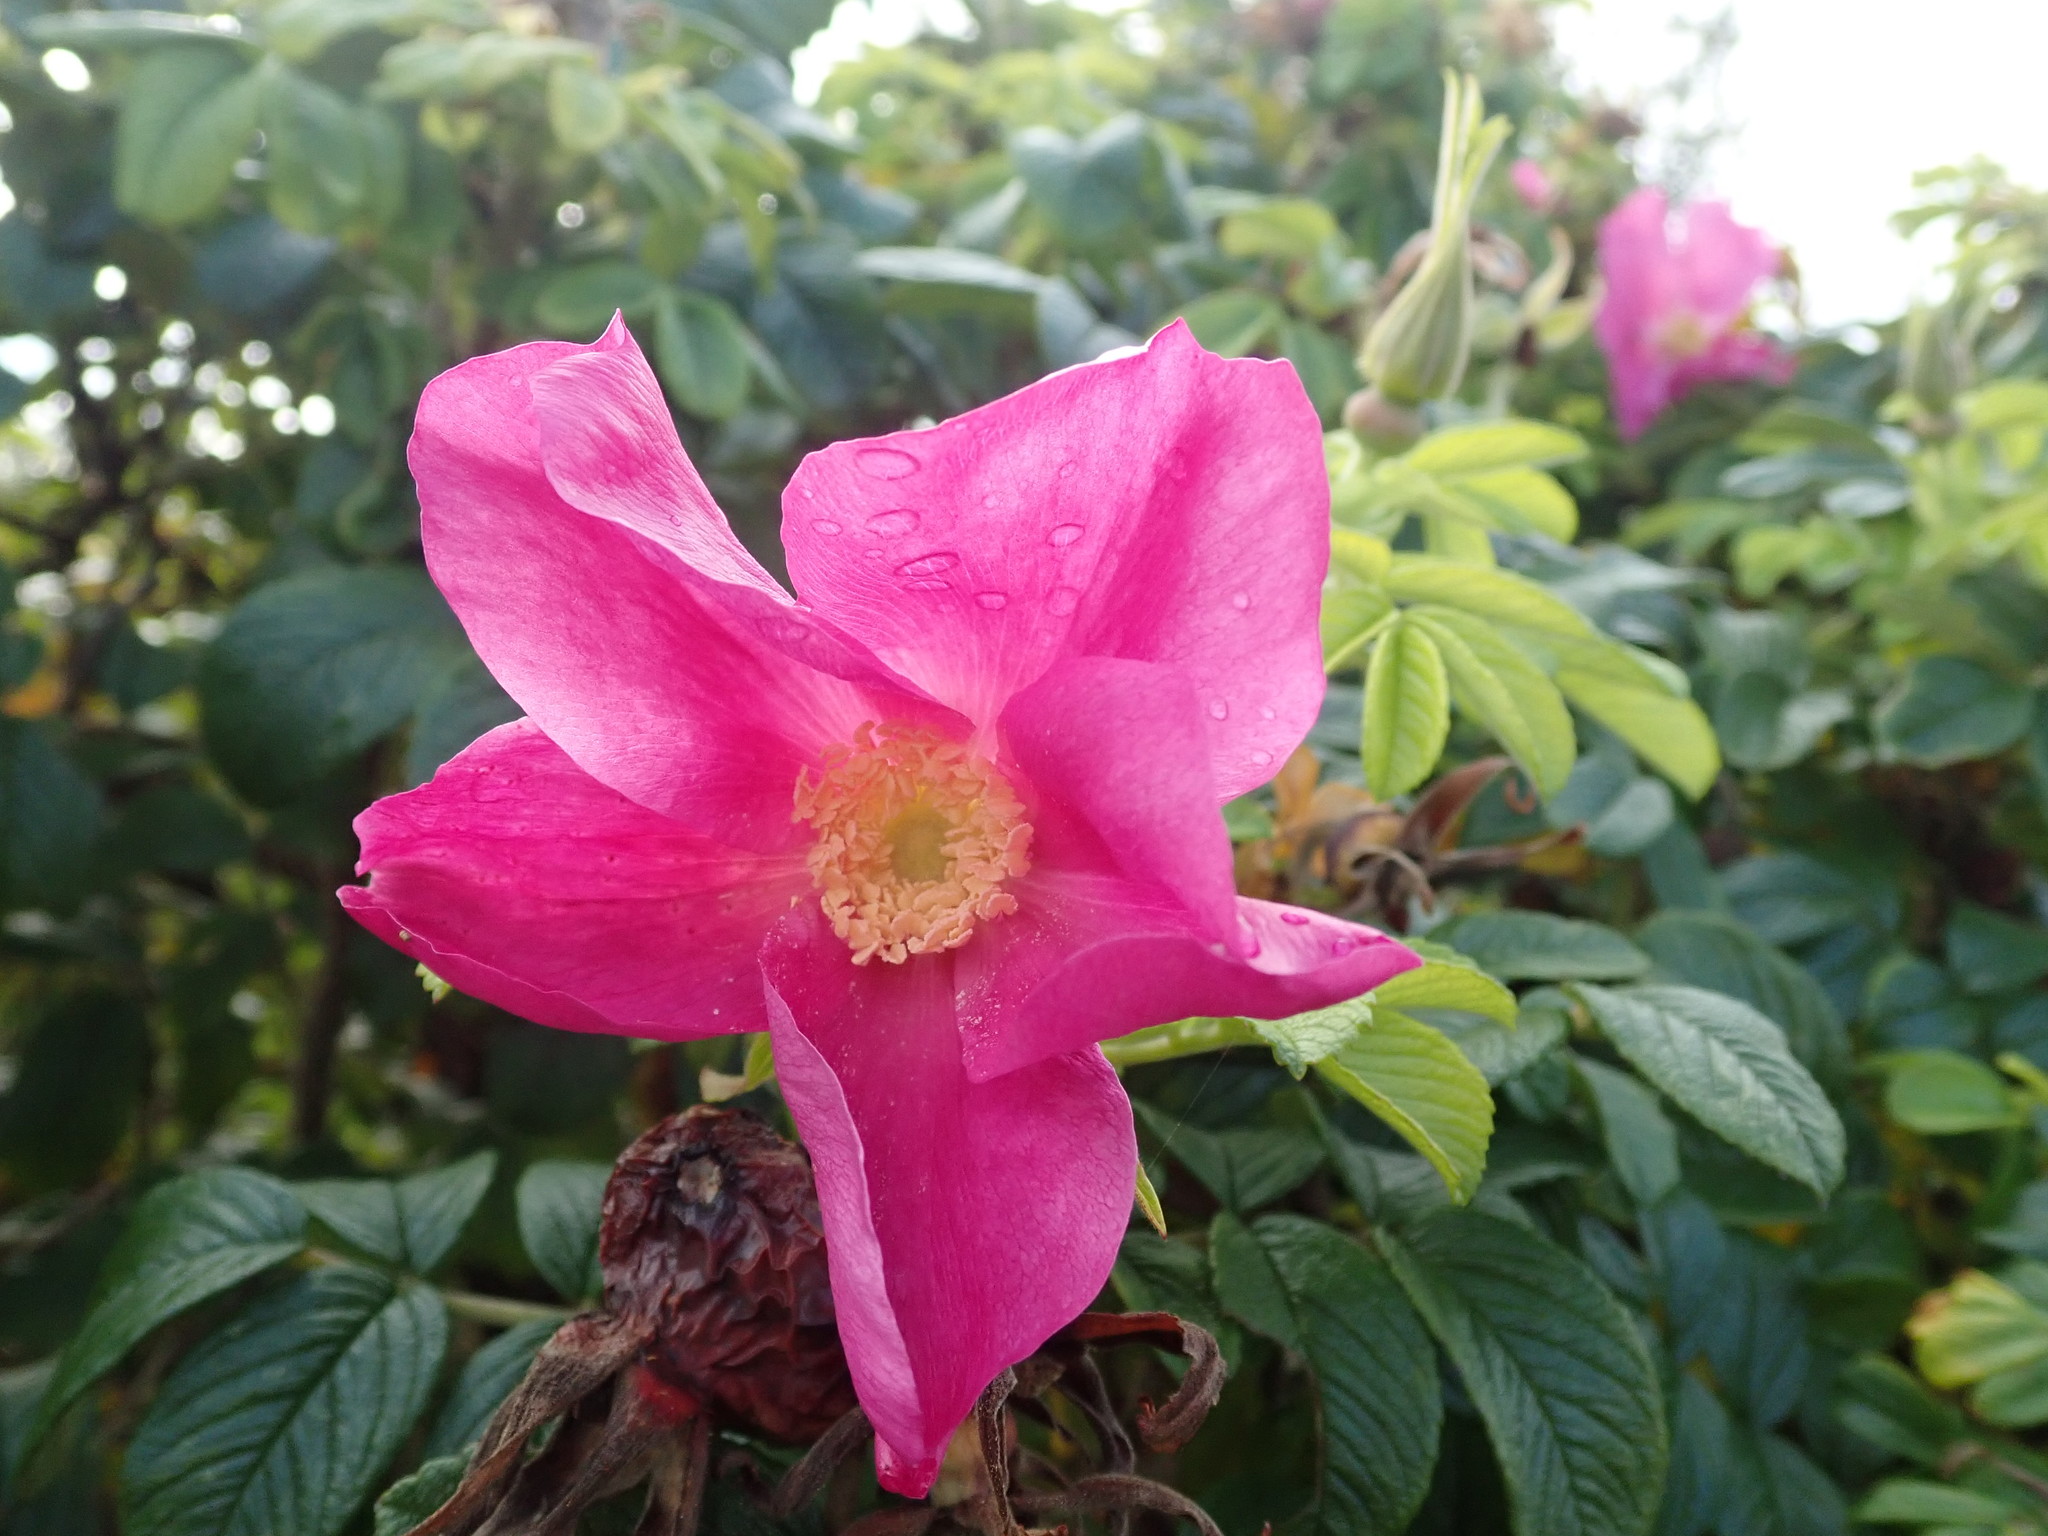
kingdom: Plantae
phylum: Tracheophyta
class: Magnoliopsida
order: Rosales
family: Rosaceae
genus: Rosa
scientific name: Rosa rugosa
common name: Japanese rose
